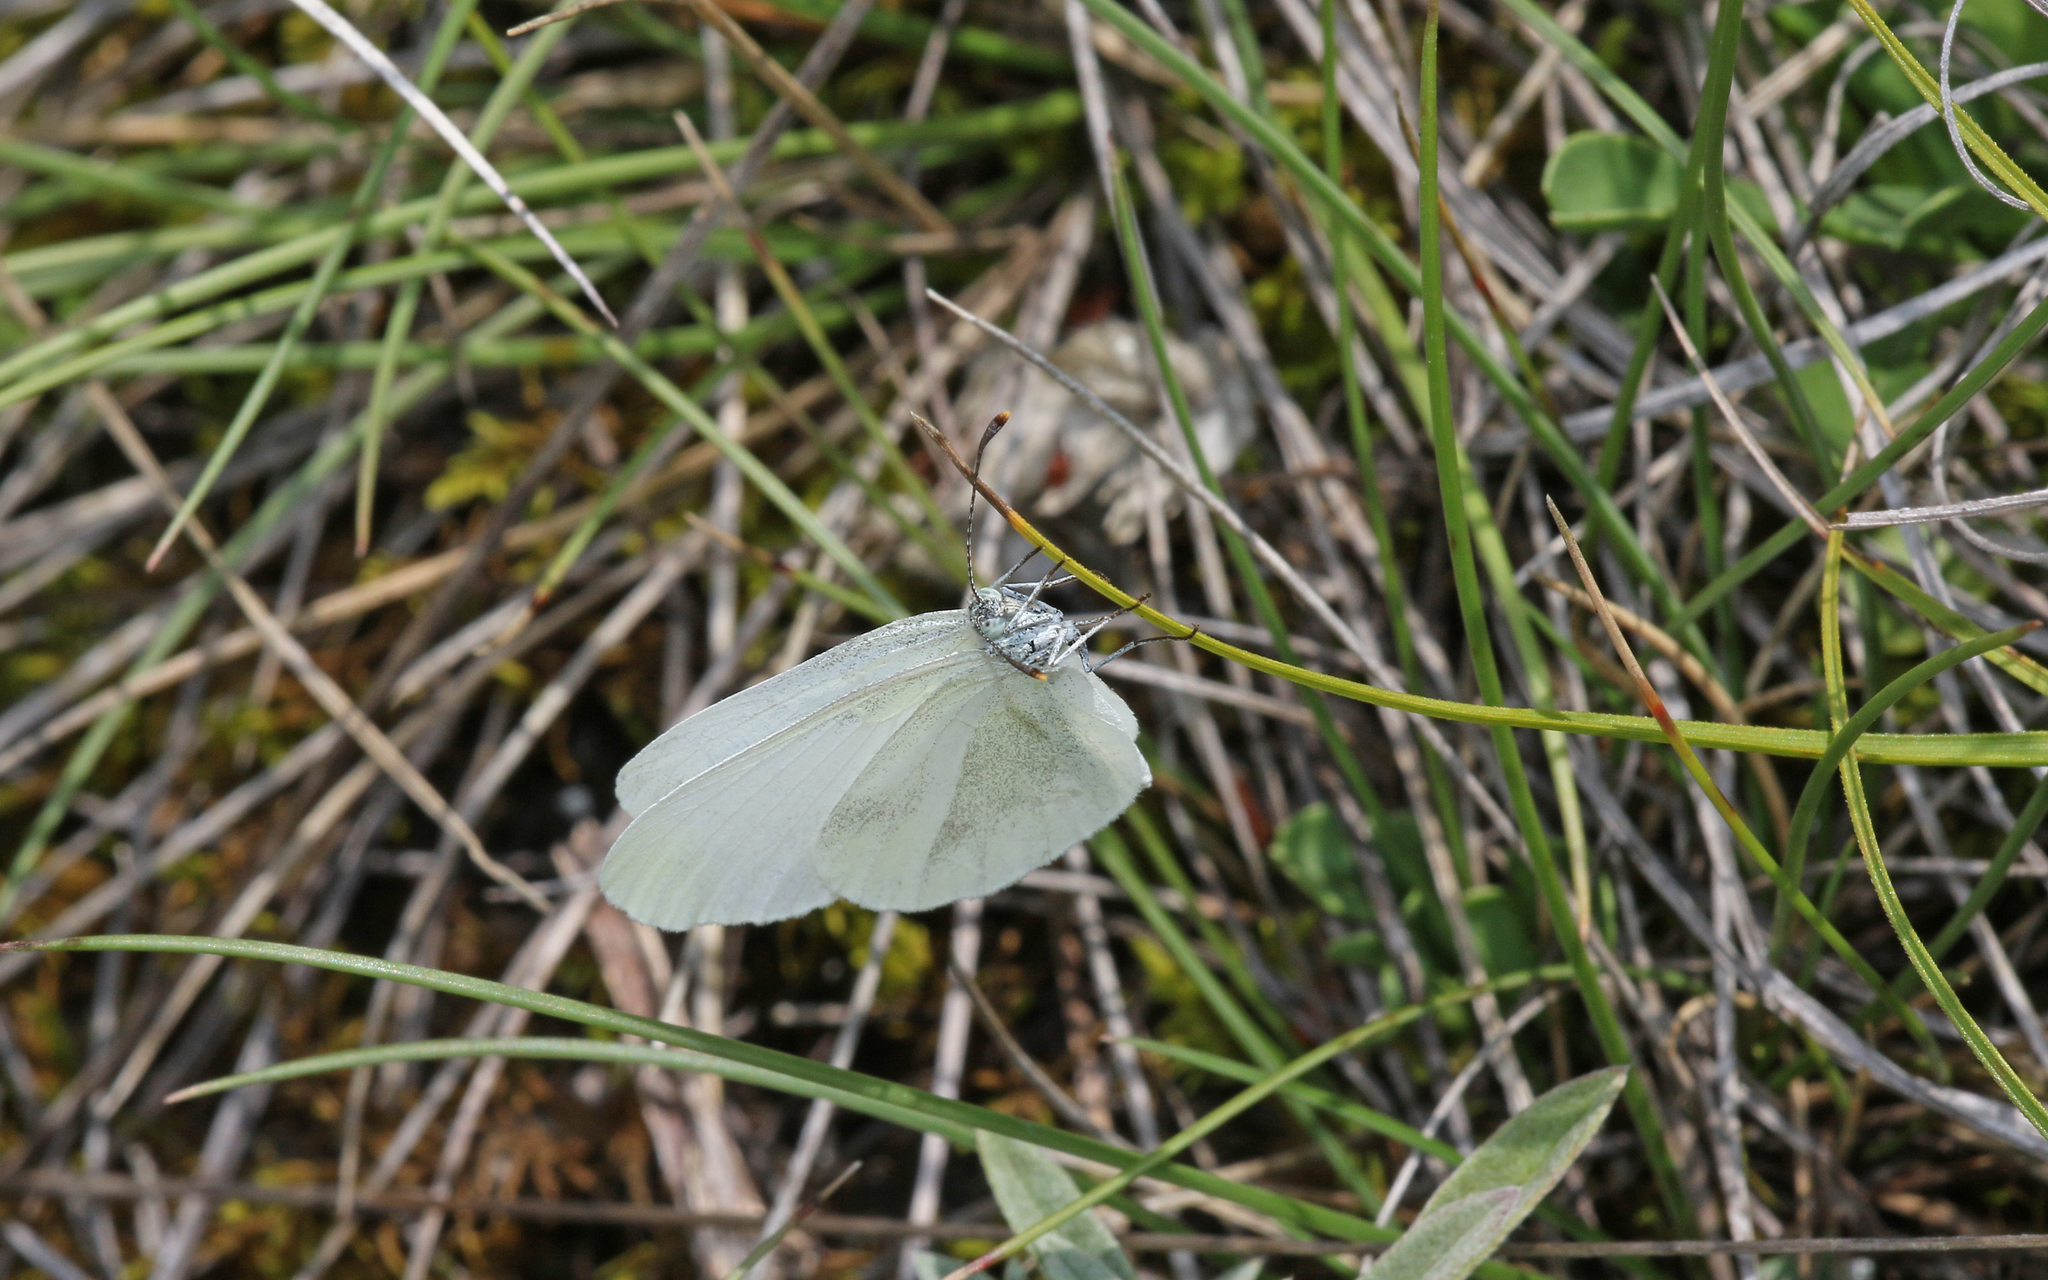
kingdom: Animalia
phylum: Arthropoda
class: Insecta
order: Lepidoptera
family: Pieridae
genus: Leptidea
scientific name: Leptidea
